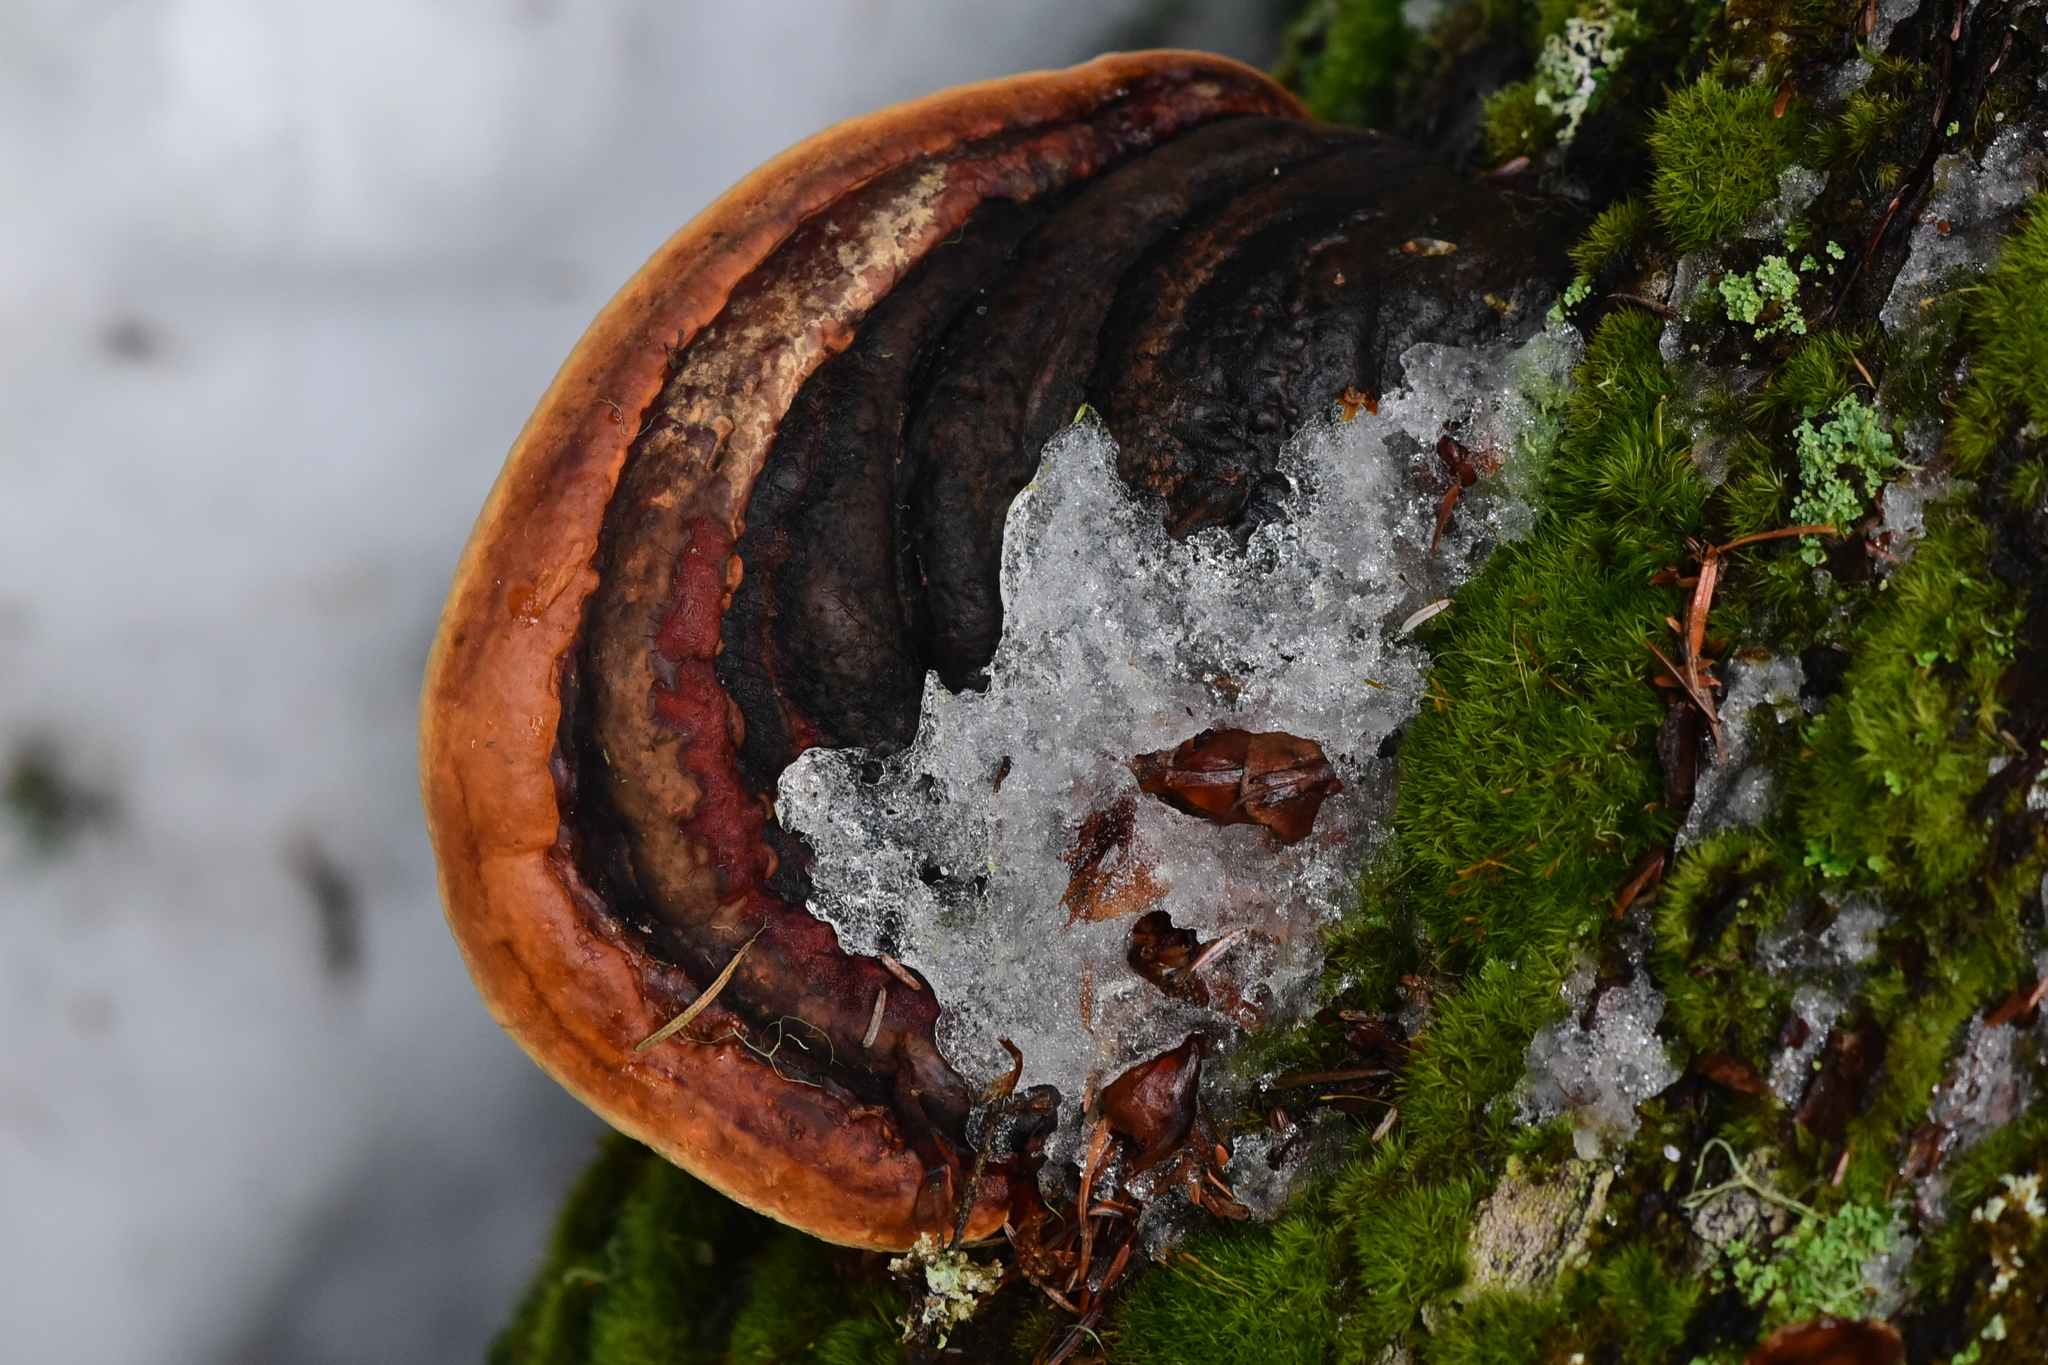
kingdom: Fungi
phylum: Basidiomycota
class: Agaricomycetes
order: Polyporales
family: Fomitopsidaceae
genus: Fomitopsis
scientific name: Fomitopsis mounceae
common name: Northern red belt
